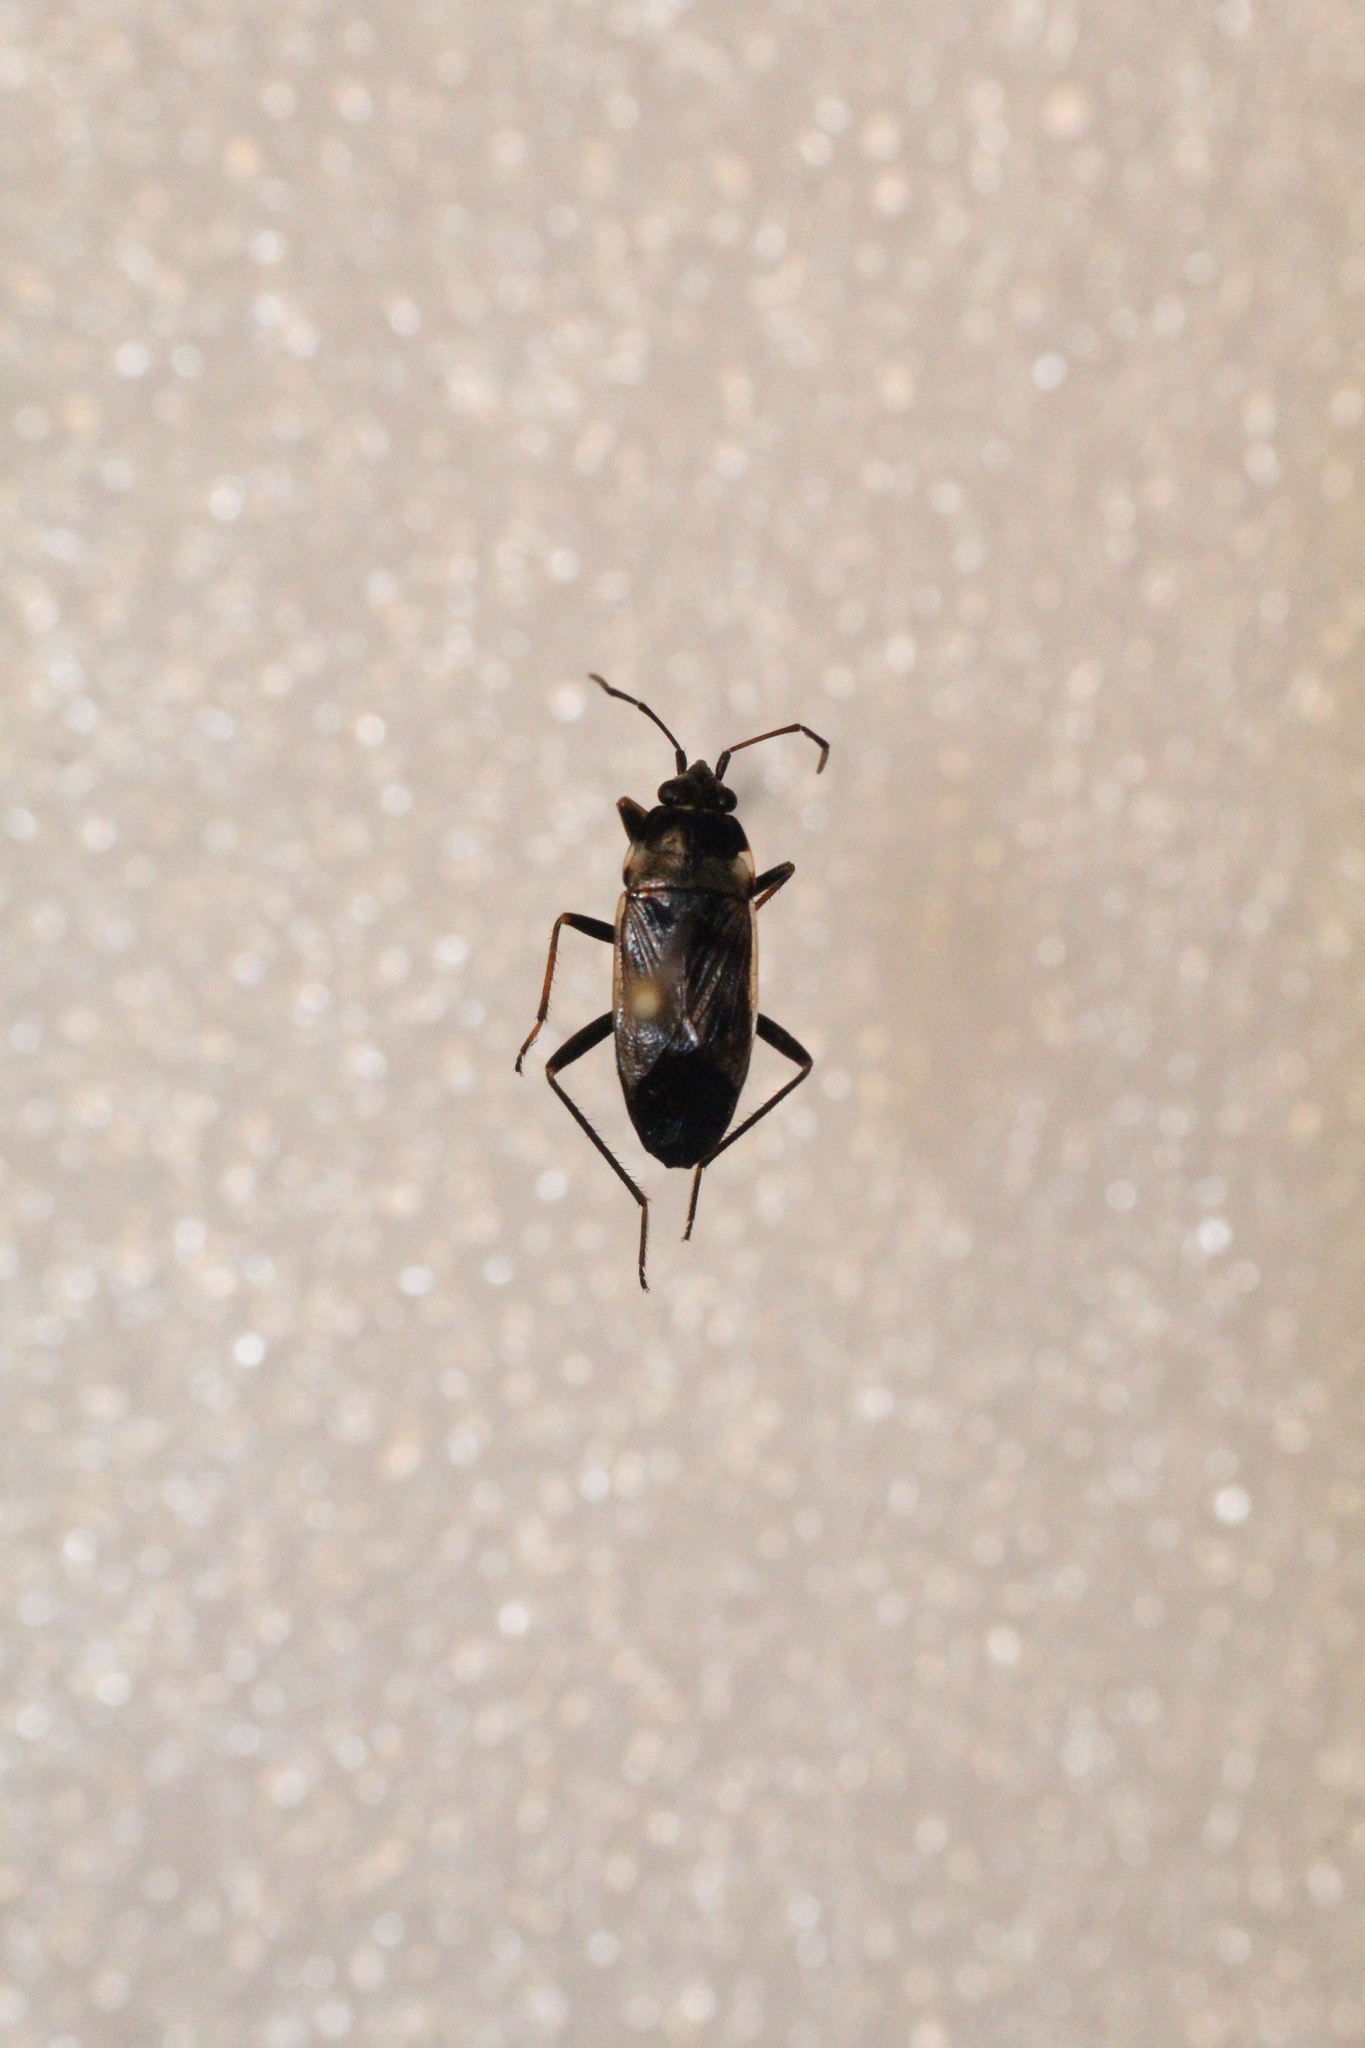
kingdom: Animalia
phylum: Arthropoda
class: Insecta
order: Hemiptera
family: Rhyparochromidae
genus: Rhyparochromus
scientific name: Rhyparochromus vulgaris
